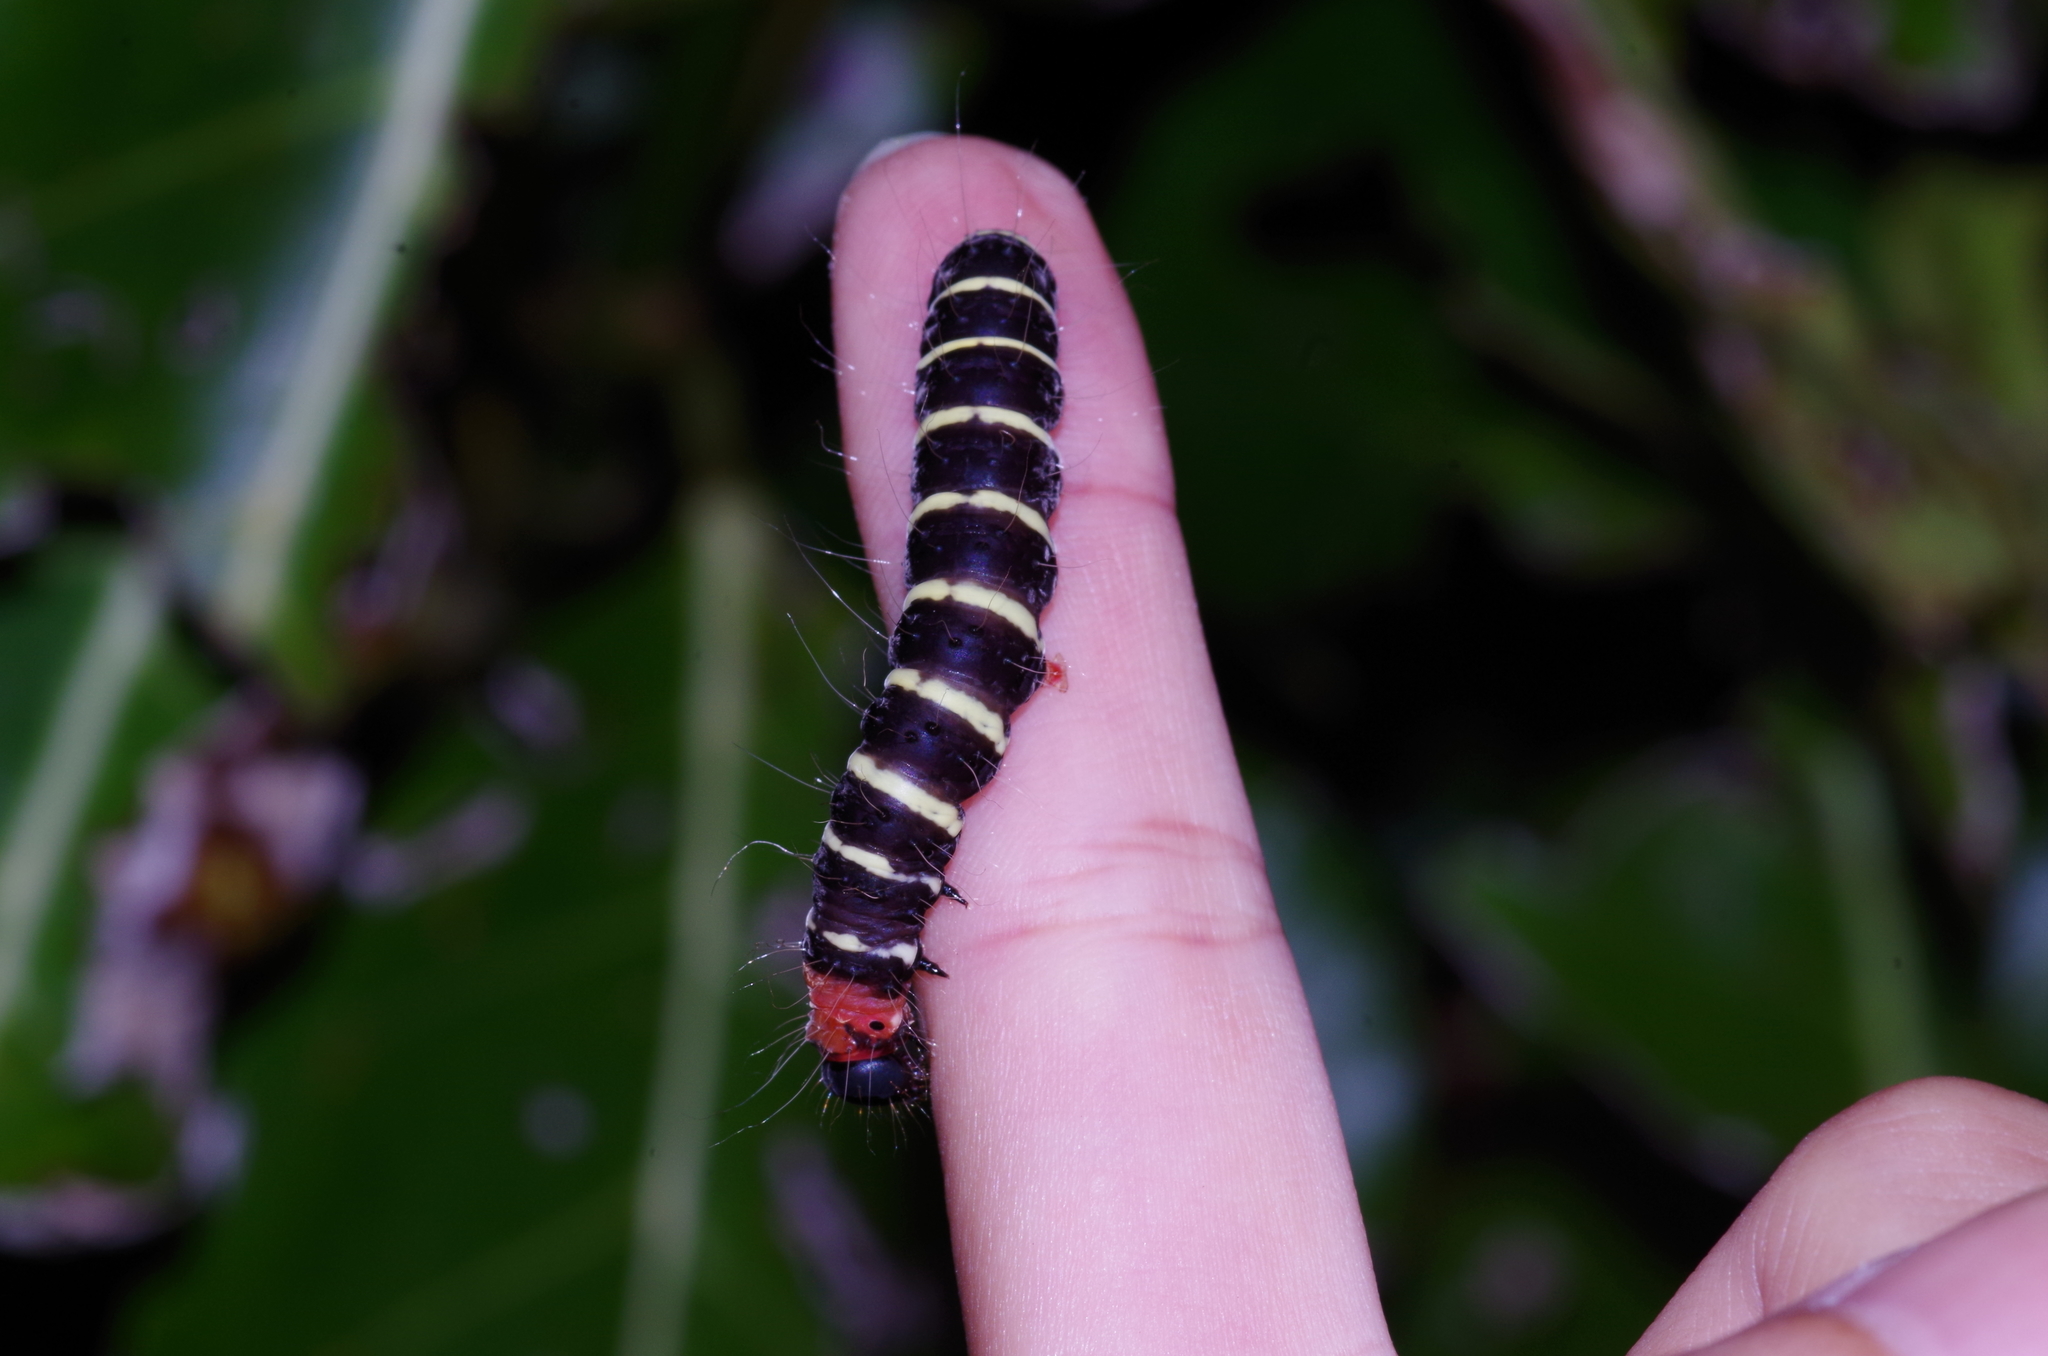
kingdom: Animalia
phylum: Arthropoda
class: Insecta
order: Lepidoptera
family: Erebidae
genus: Asota
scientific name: Asota plana
